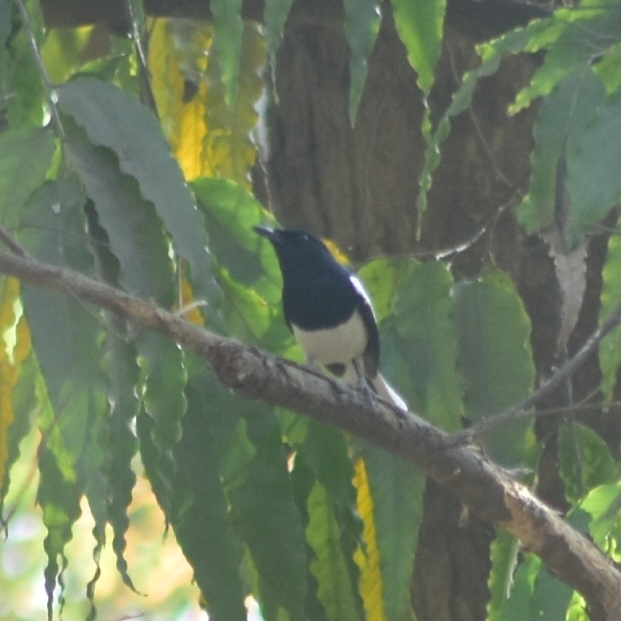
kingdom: Animalia
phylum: Chordata
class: Aves
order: Passeriformes
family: Muscicapidae
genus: Copsychus
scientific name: Copsychus saularis
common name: Oriental magpie-robin
